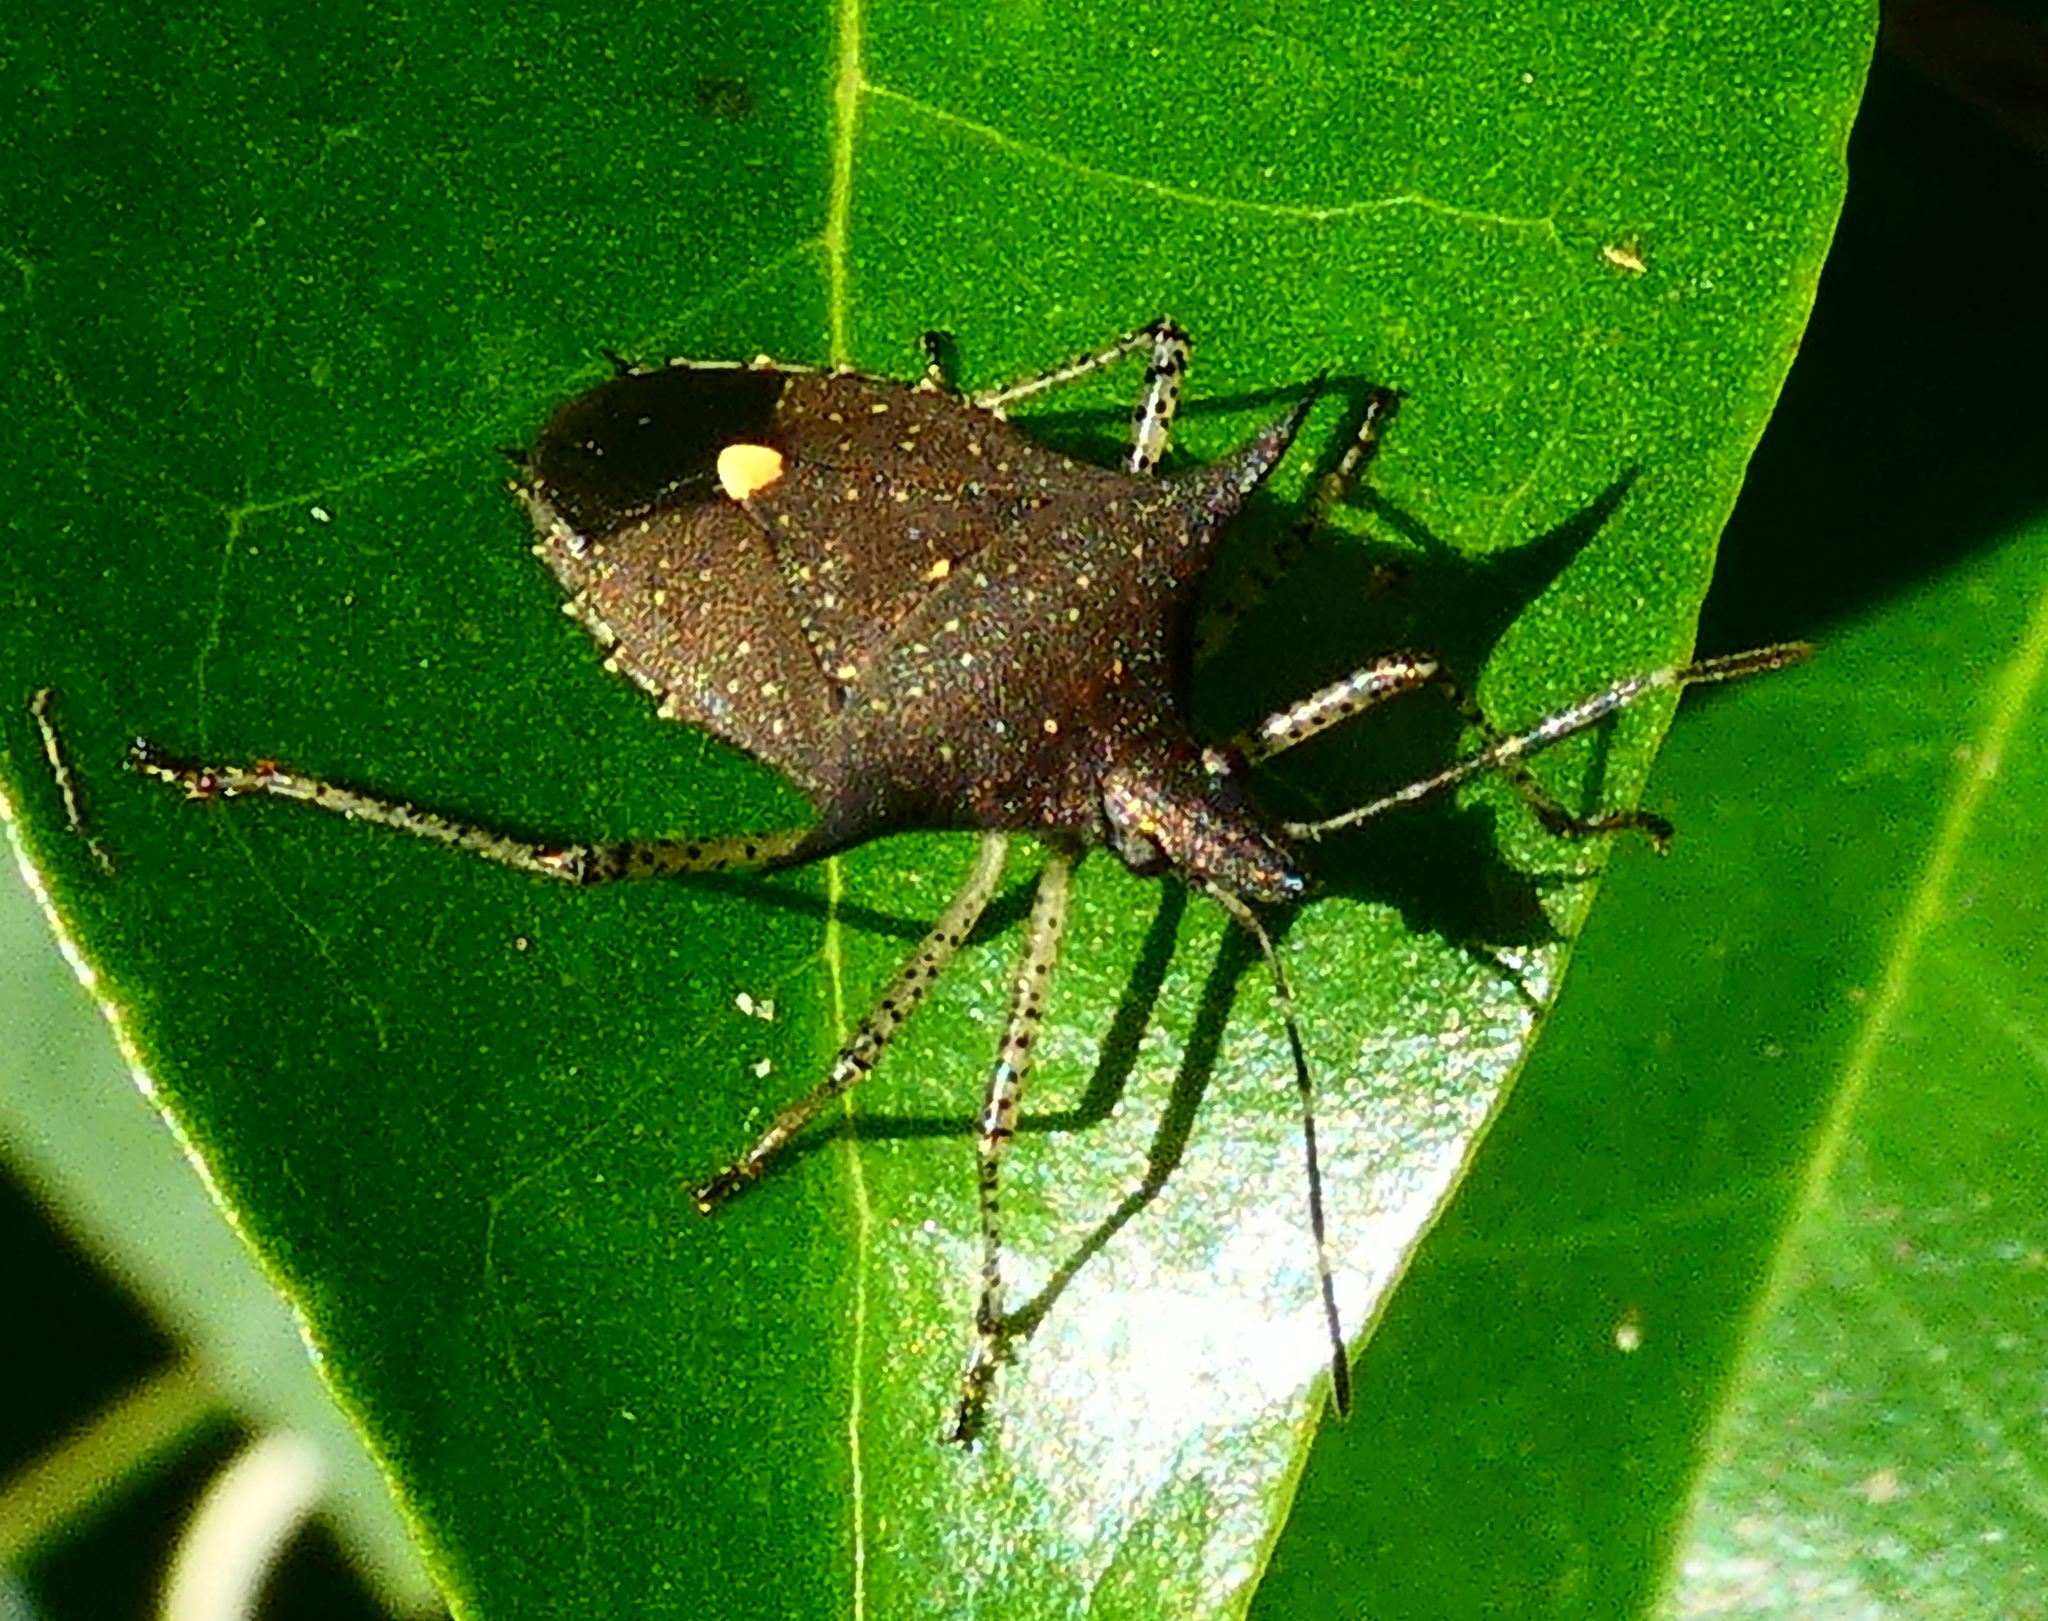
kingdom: Animalia
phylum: Arthropoda
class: Insecta
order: Hemiptera
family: Pentatomidae
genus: Proxys
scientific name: Proxys albopunctulatus
